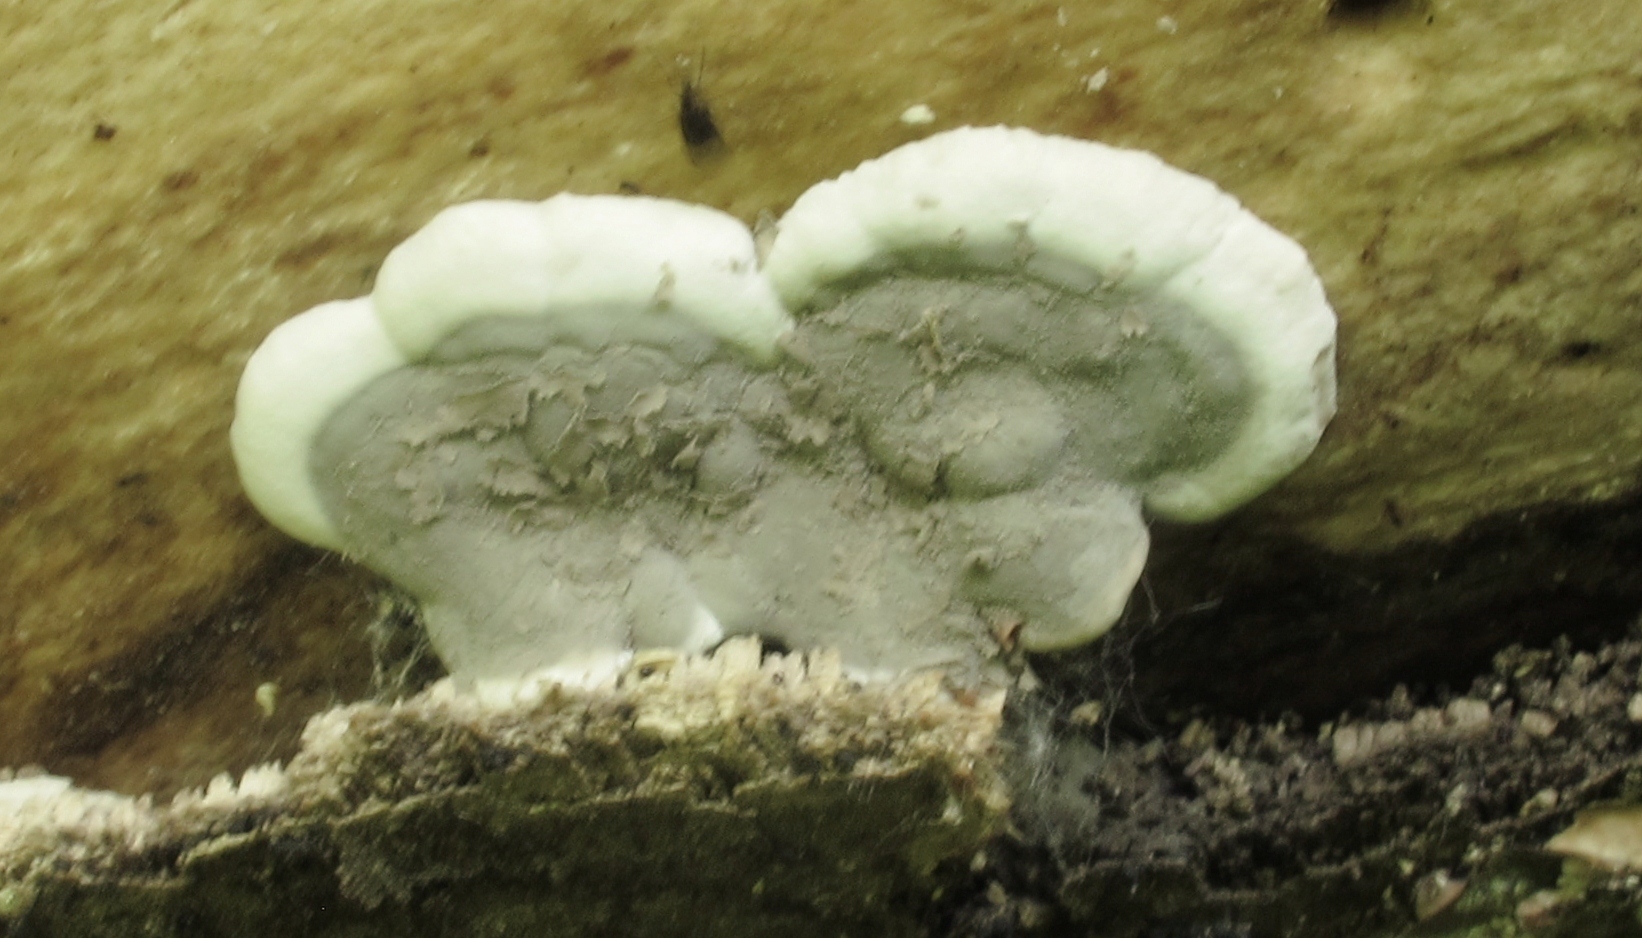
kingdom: Fungi
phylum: Ascomycota
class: Sordariomycetes
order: Xylariales
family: Xylariaceae
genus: Kretzschmaria
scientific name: Kretzschmaria deusta
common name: Brittle cinder
